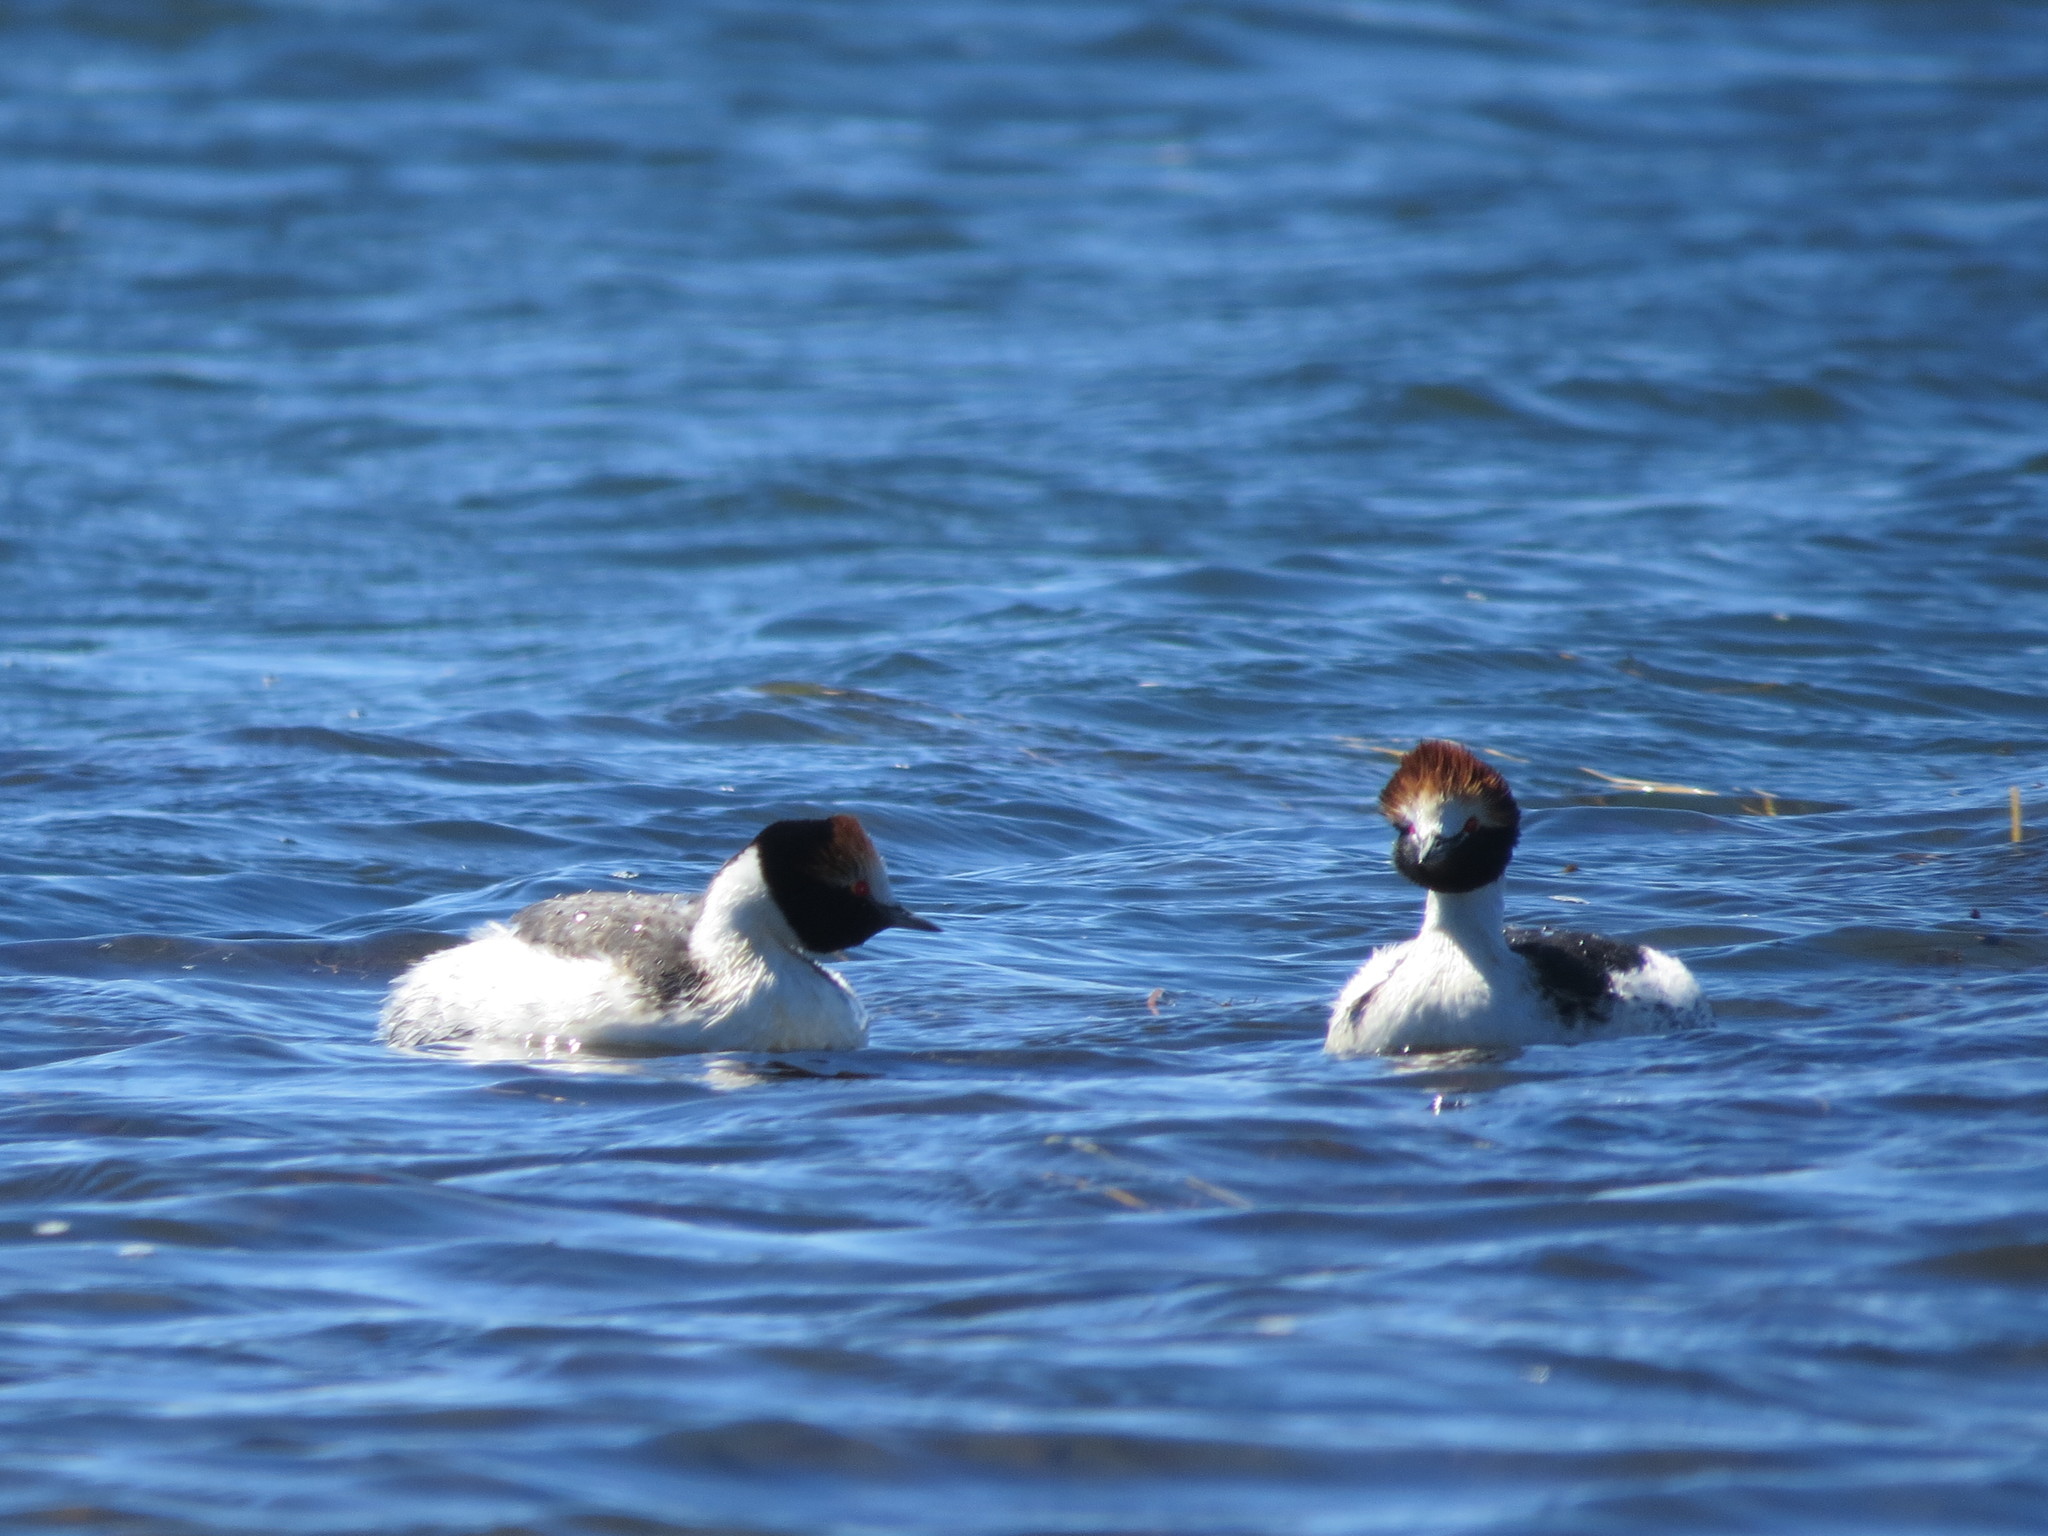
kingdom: Animalia
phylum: Chordata
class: Aves
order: Podicipediformes
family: Podicipedidae
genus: Podiceps
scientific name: Podiceps gallardoi
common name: Hooded grebe
